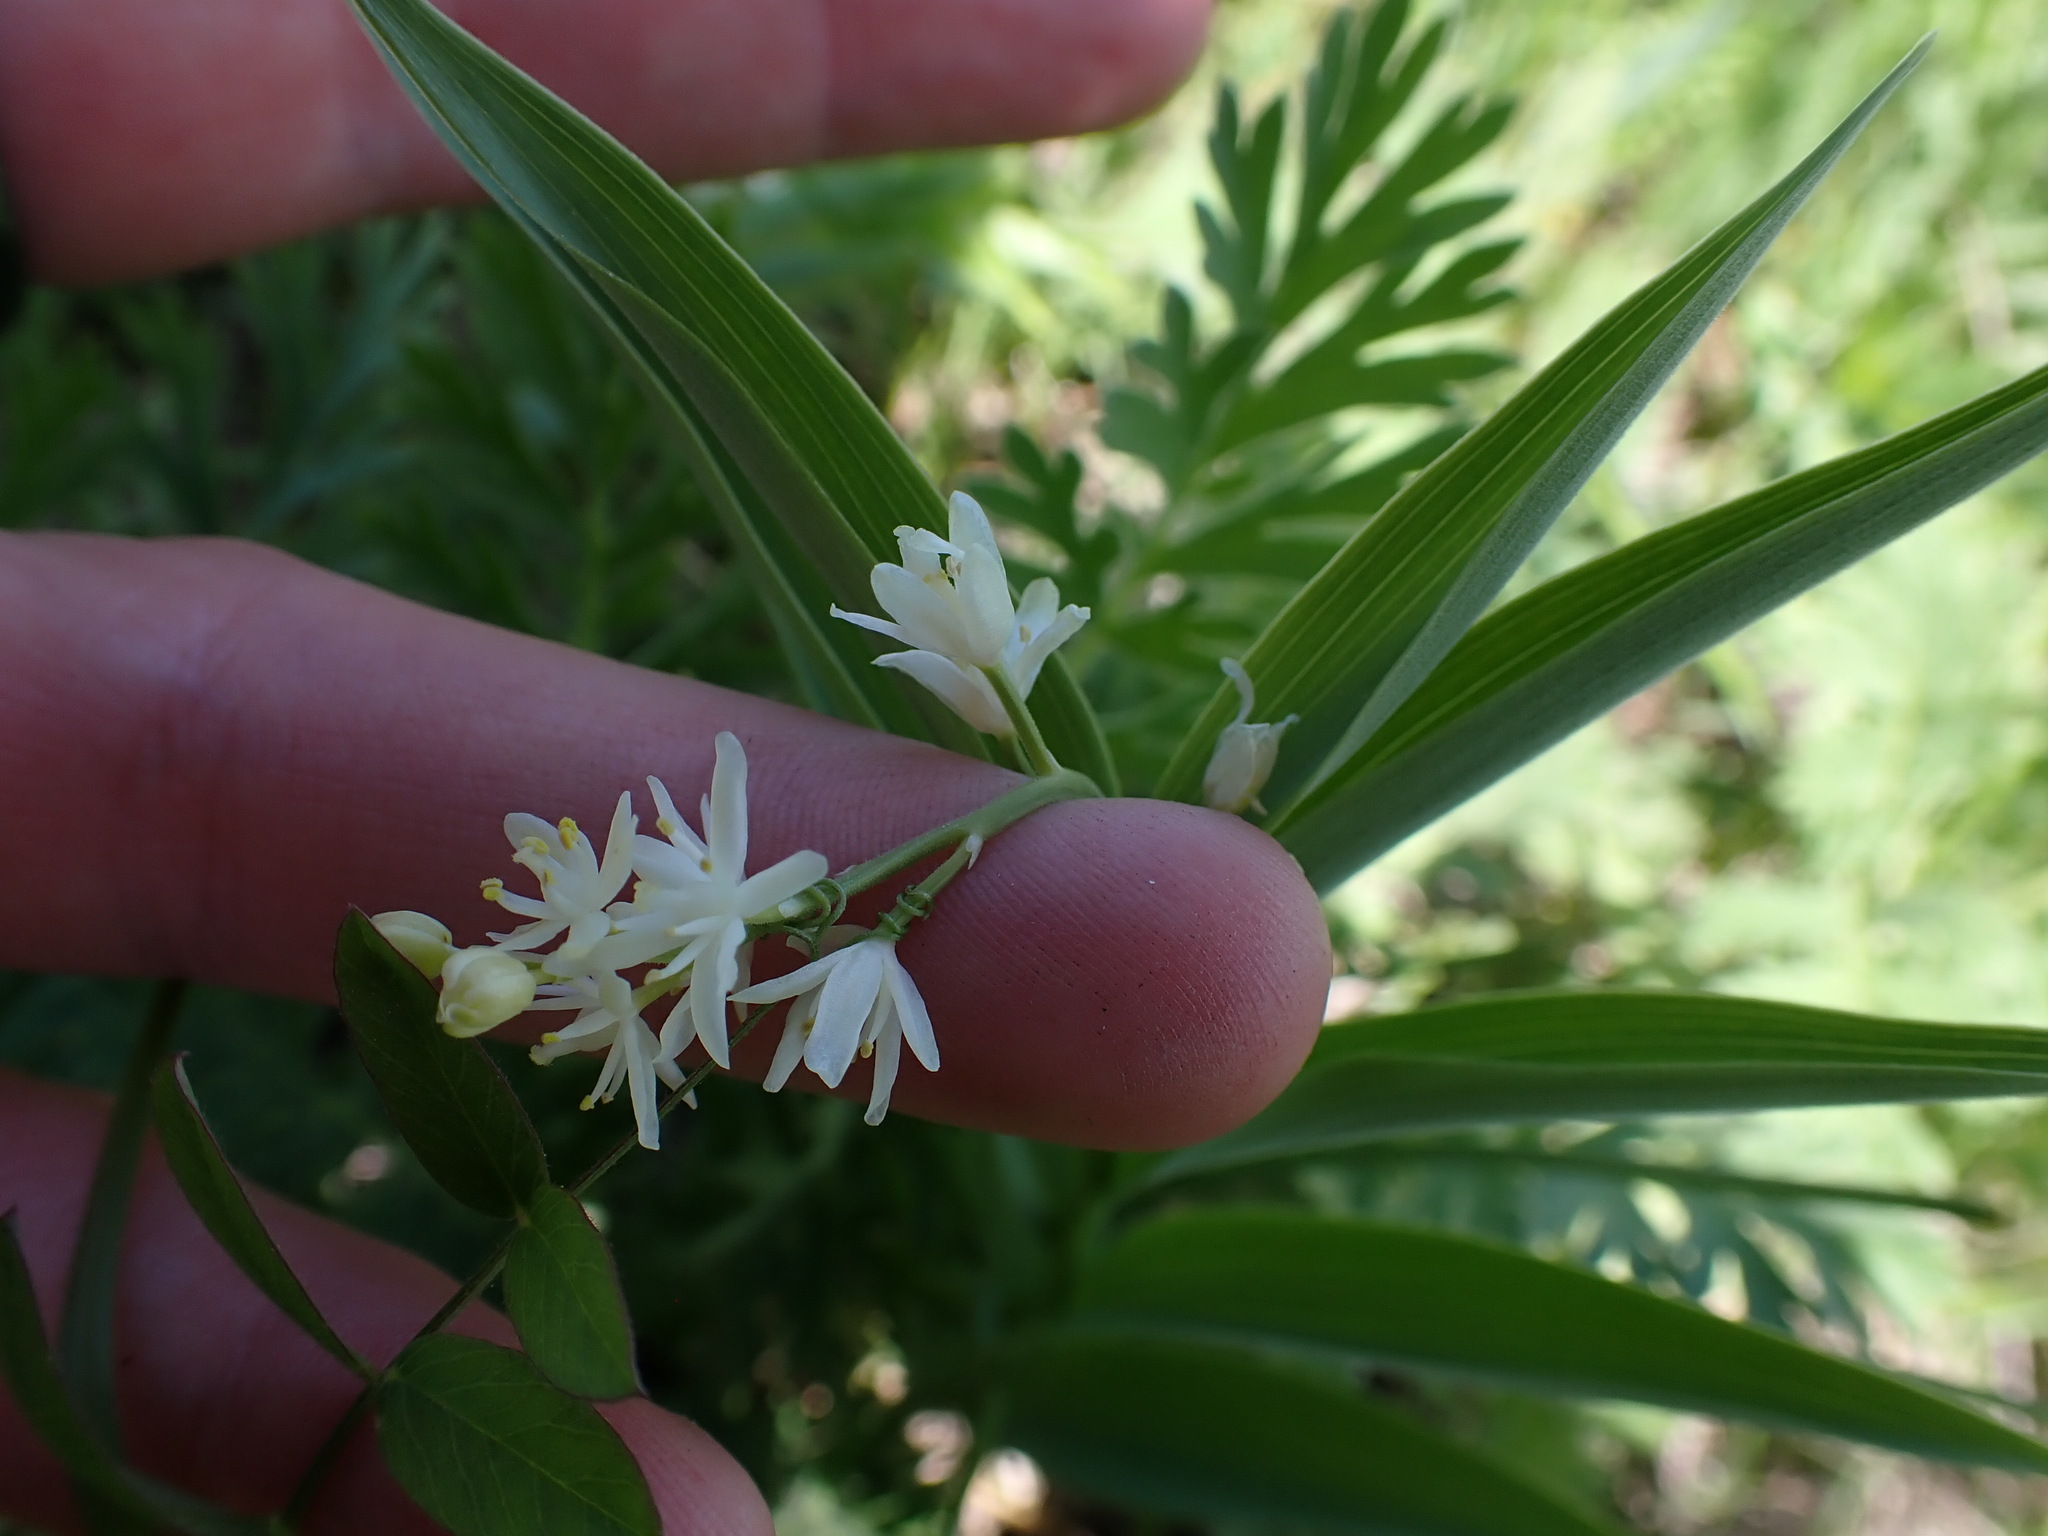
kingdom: Plantae
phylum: Tracheophyta
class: Liliopsida
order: Asparagales
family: Asparagaceae
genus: Maianthemum
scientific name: Maianthemum stellatum
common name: Little false solomon's seal
